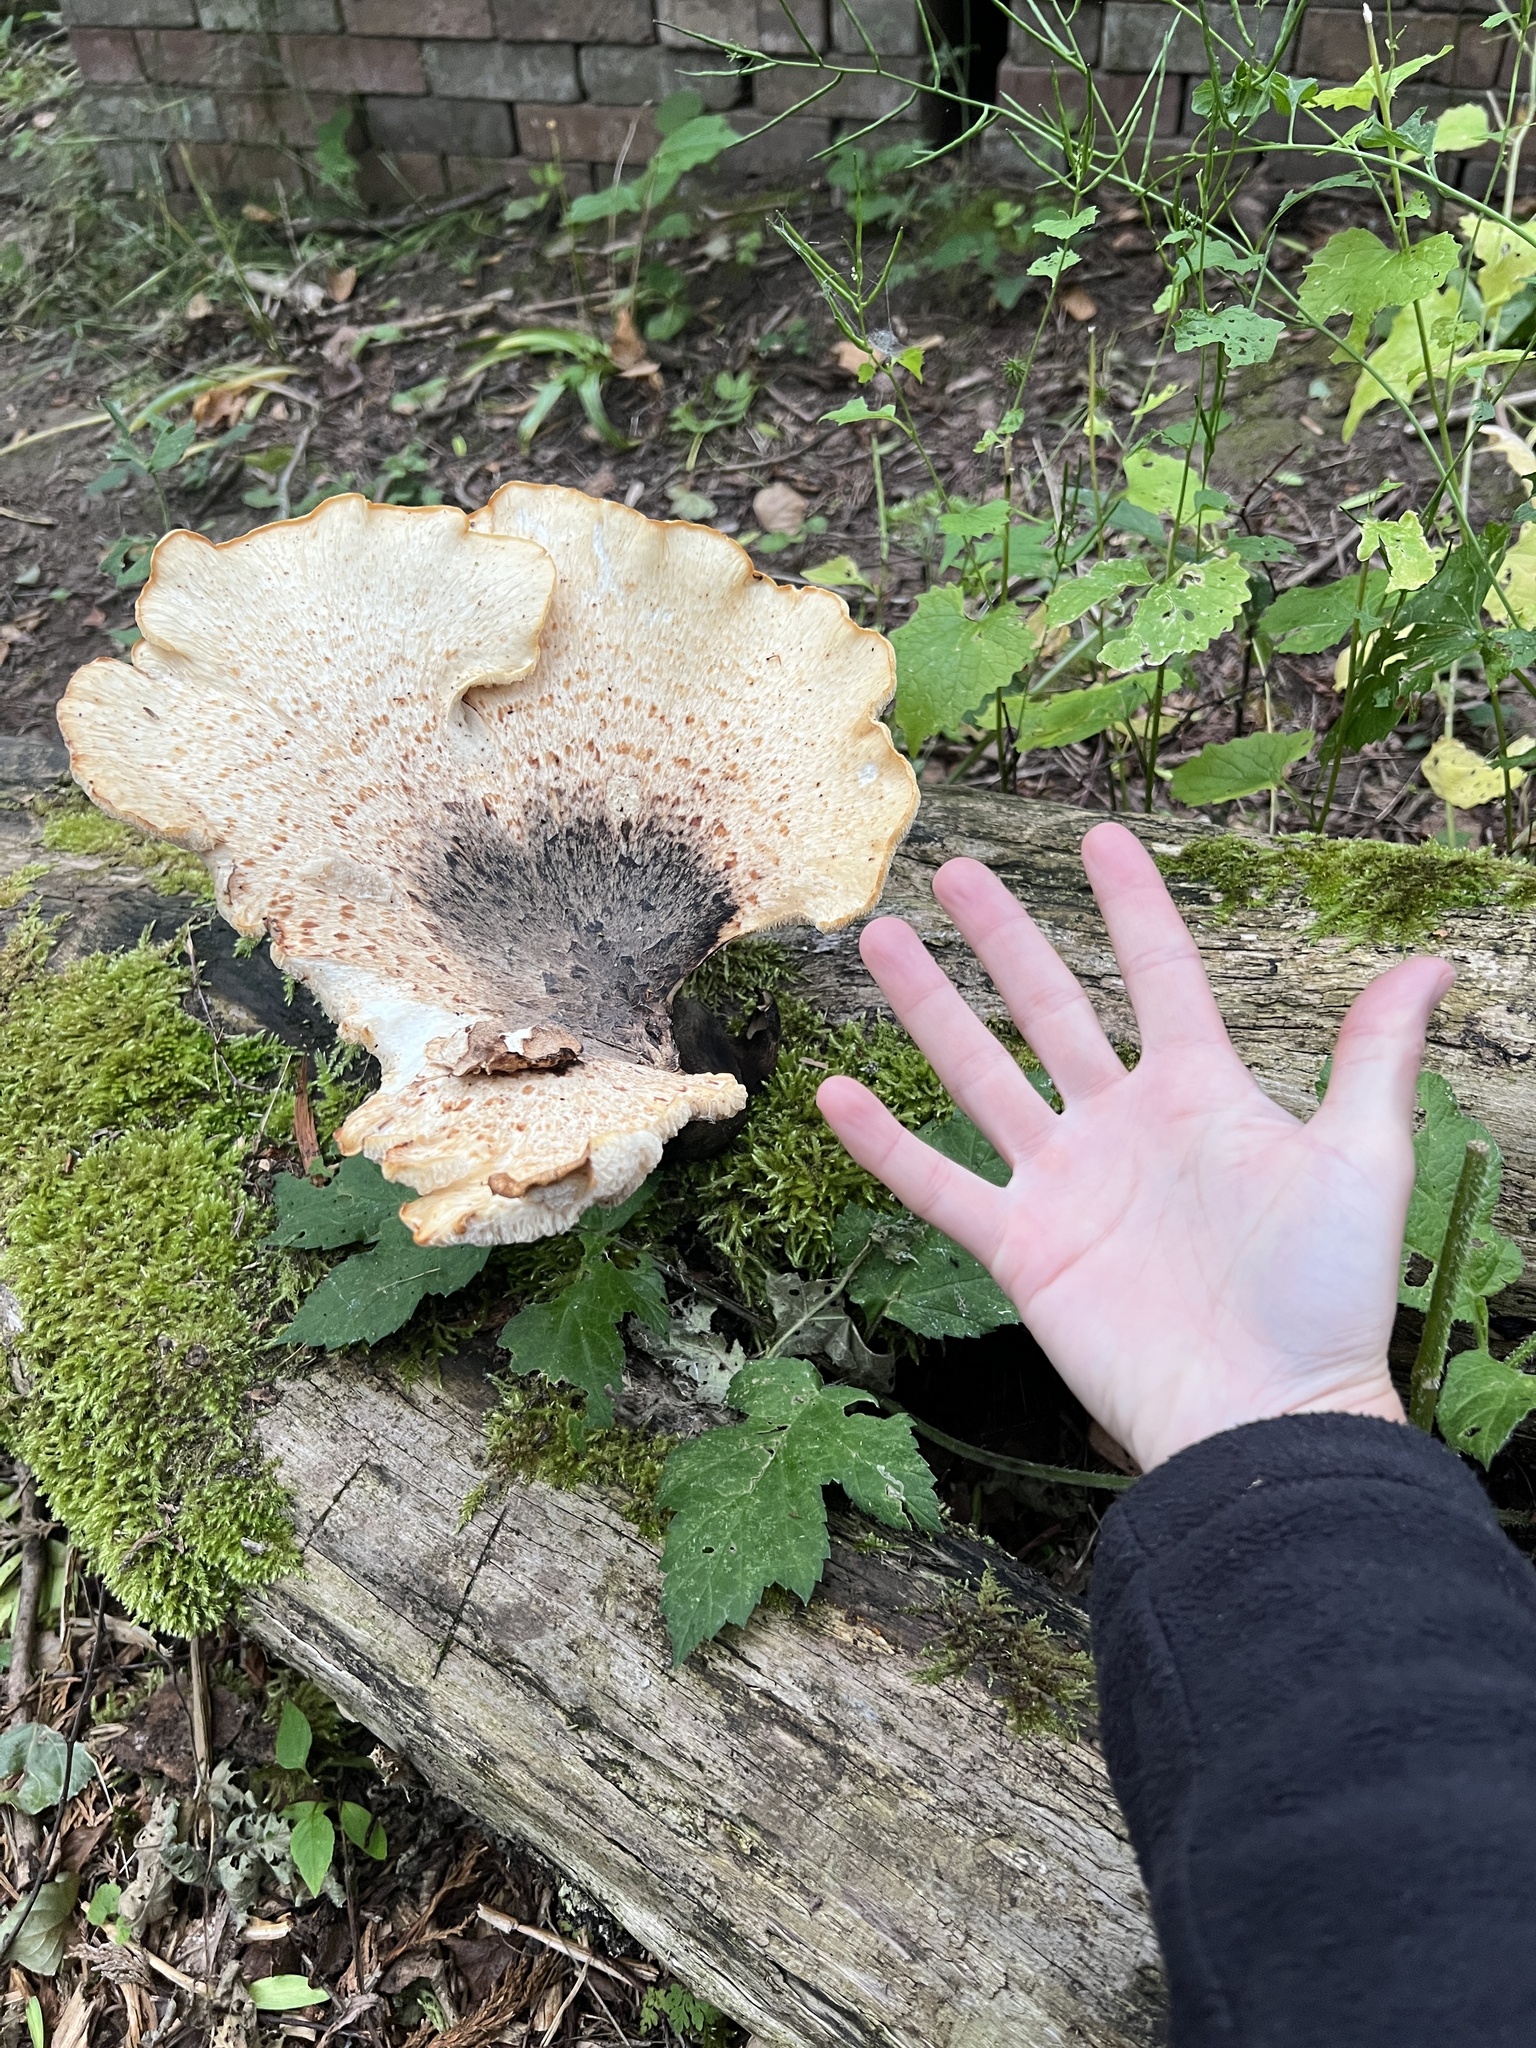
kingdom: Fungi
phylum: Basidiomycota
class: Agaricomycetes
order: Polyporales
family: Polyporaceae
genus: Cerioporus
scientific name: Cerioporus squamosus
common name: Dryad's saddle
